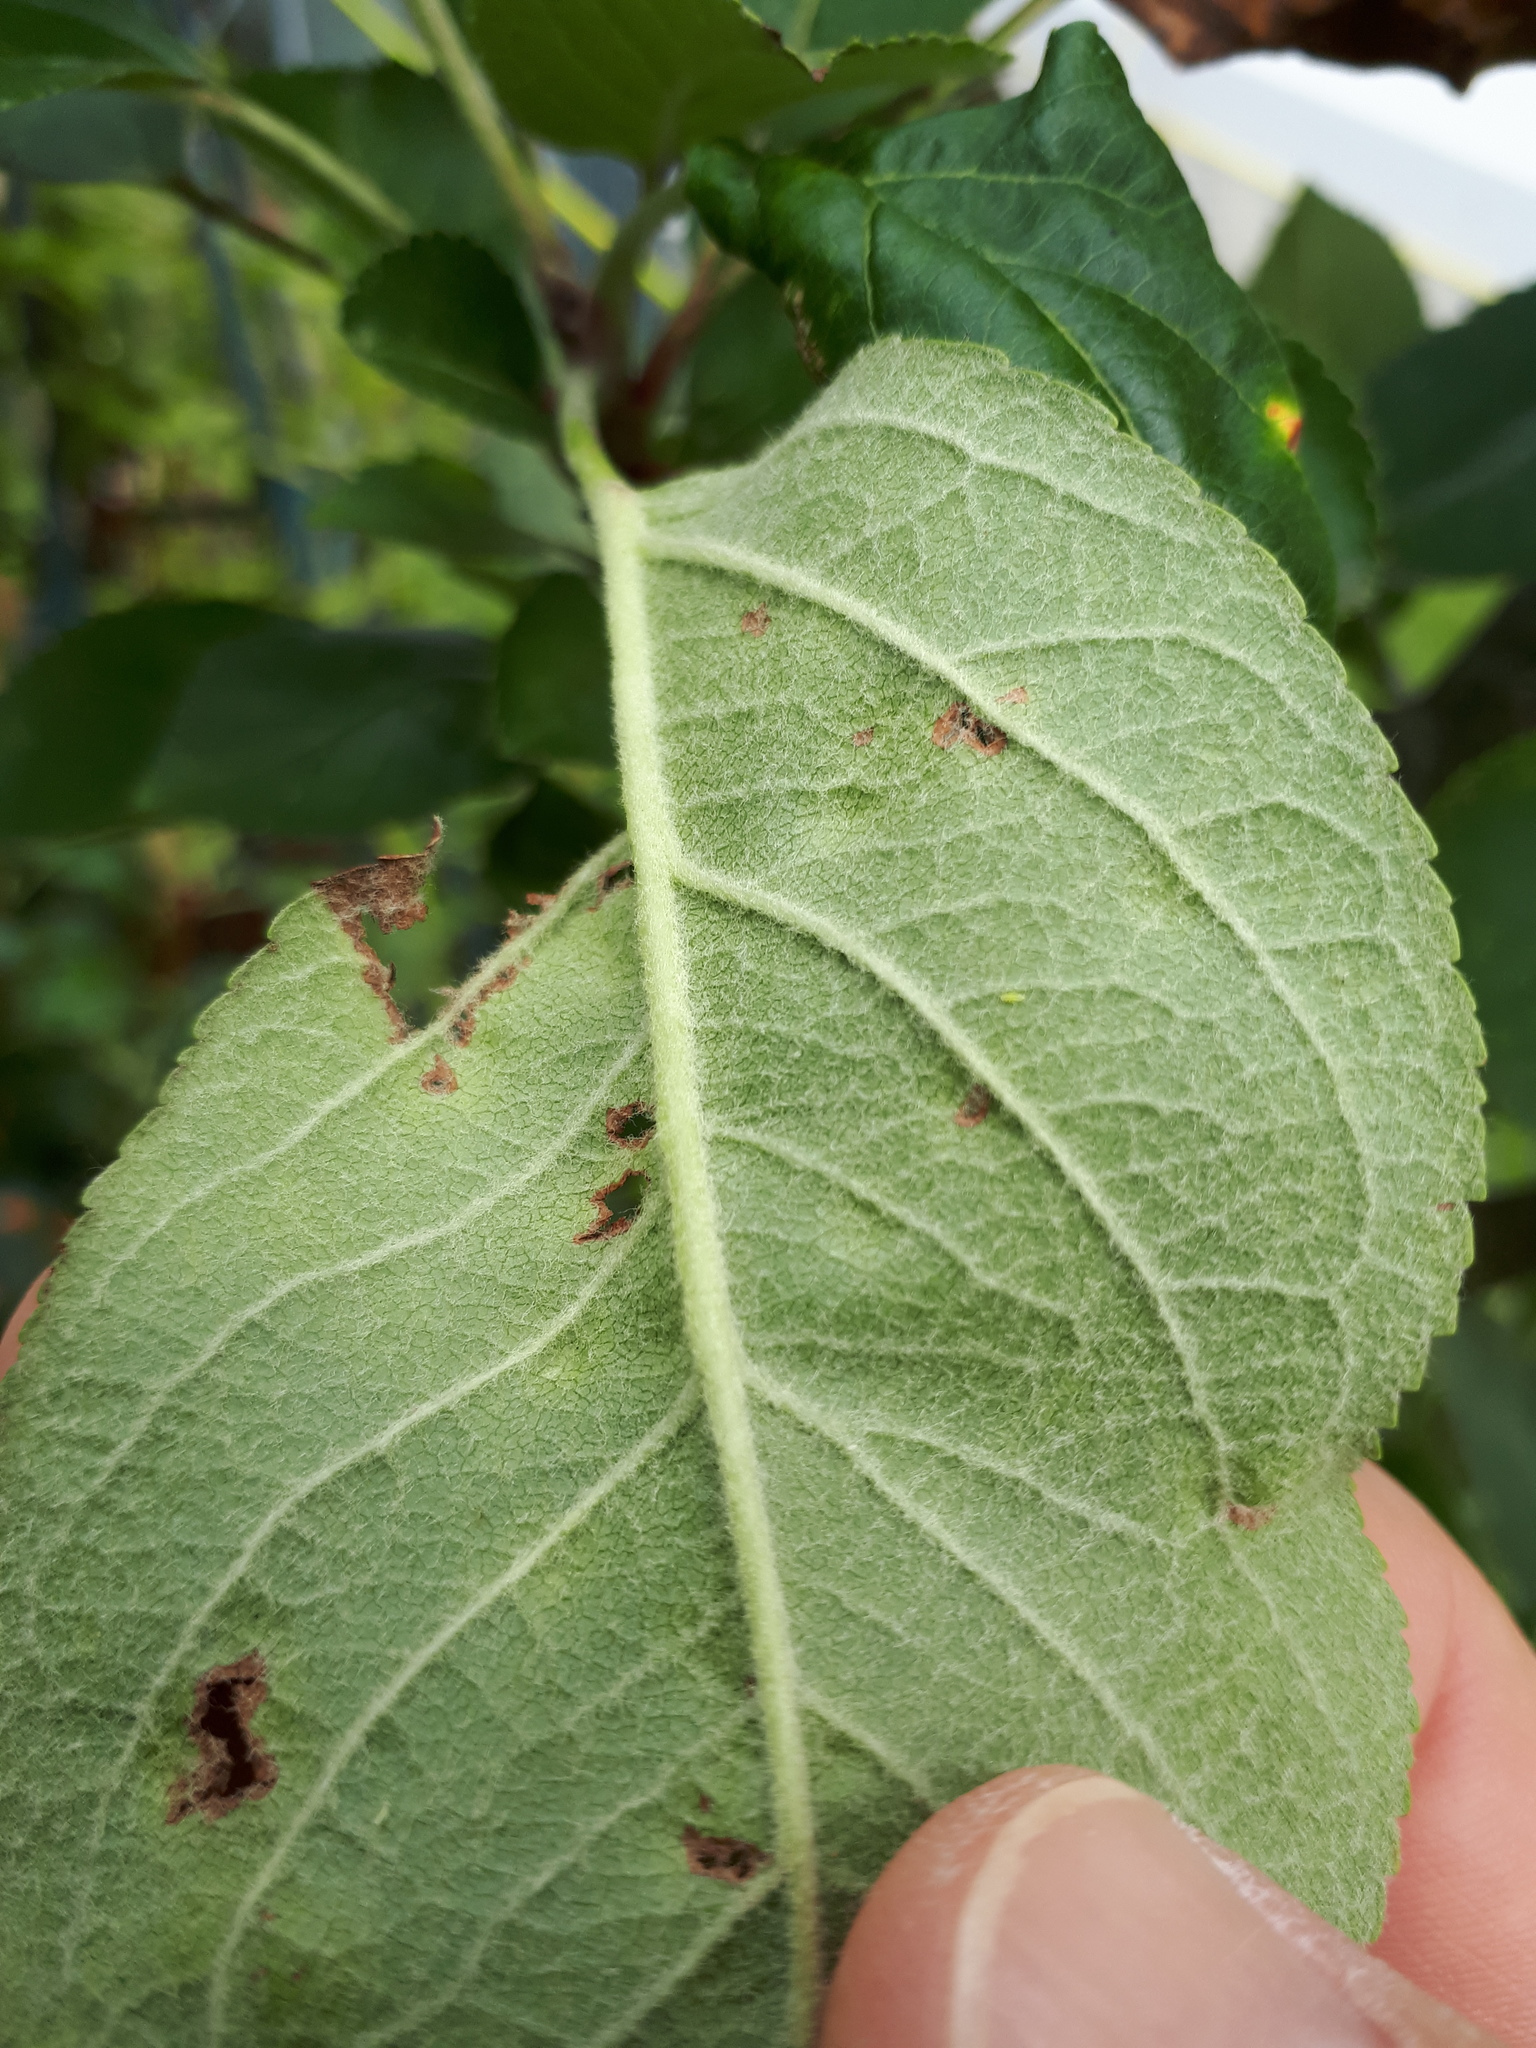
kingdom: Fungi
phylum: Ascomycota
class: Dothideomycetes
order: Venturiales
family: Venturiaceae
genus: Venturia
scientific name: Venturia inaequalis
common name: Apple scab
